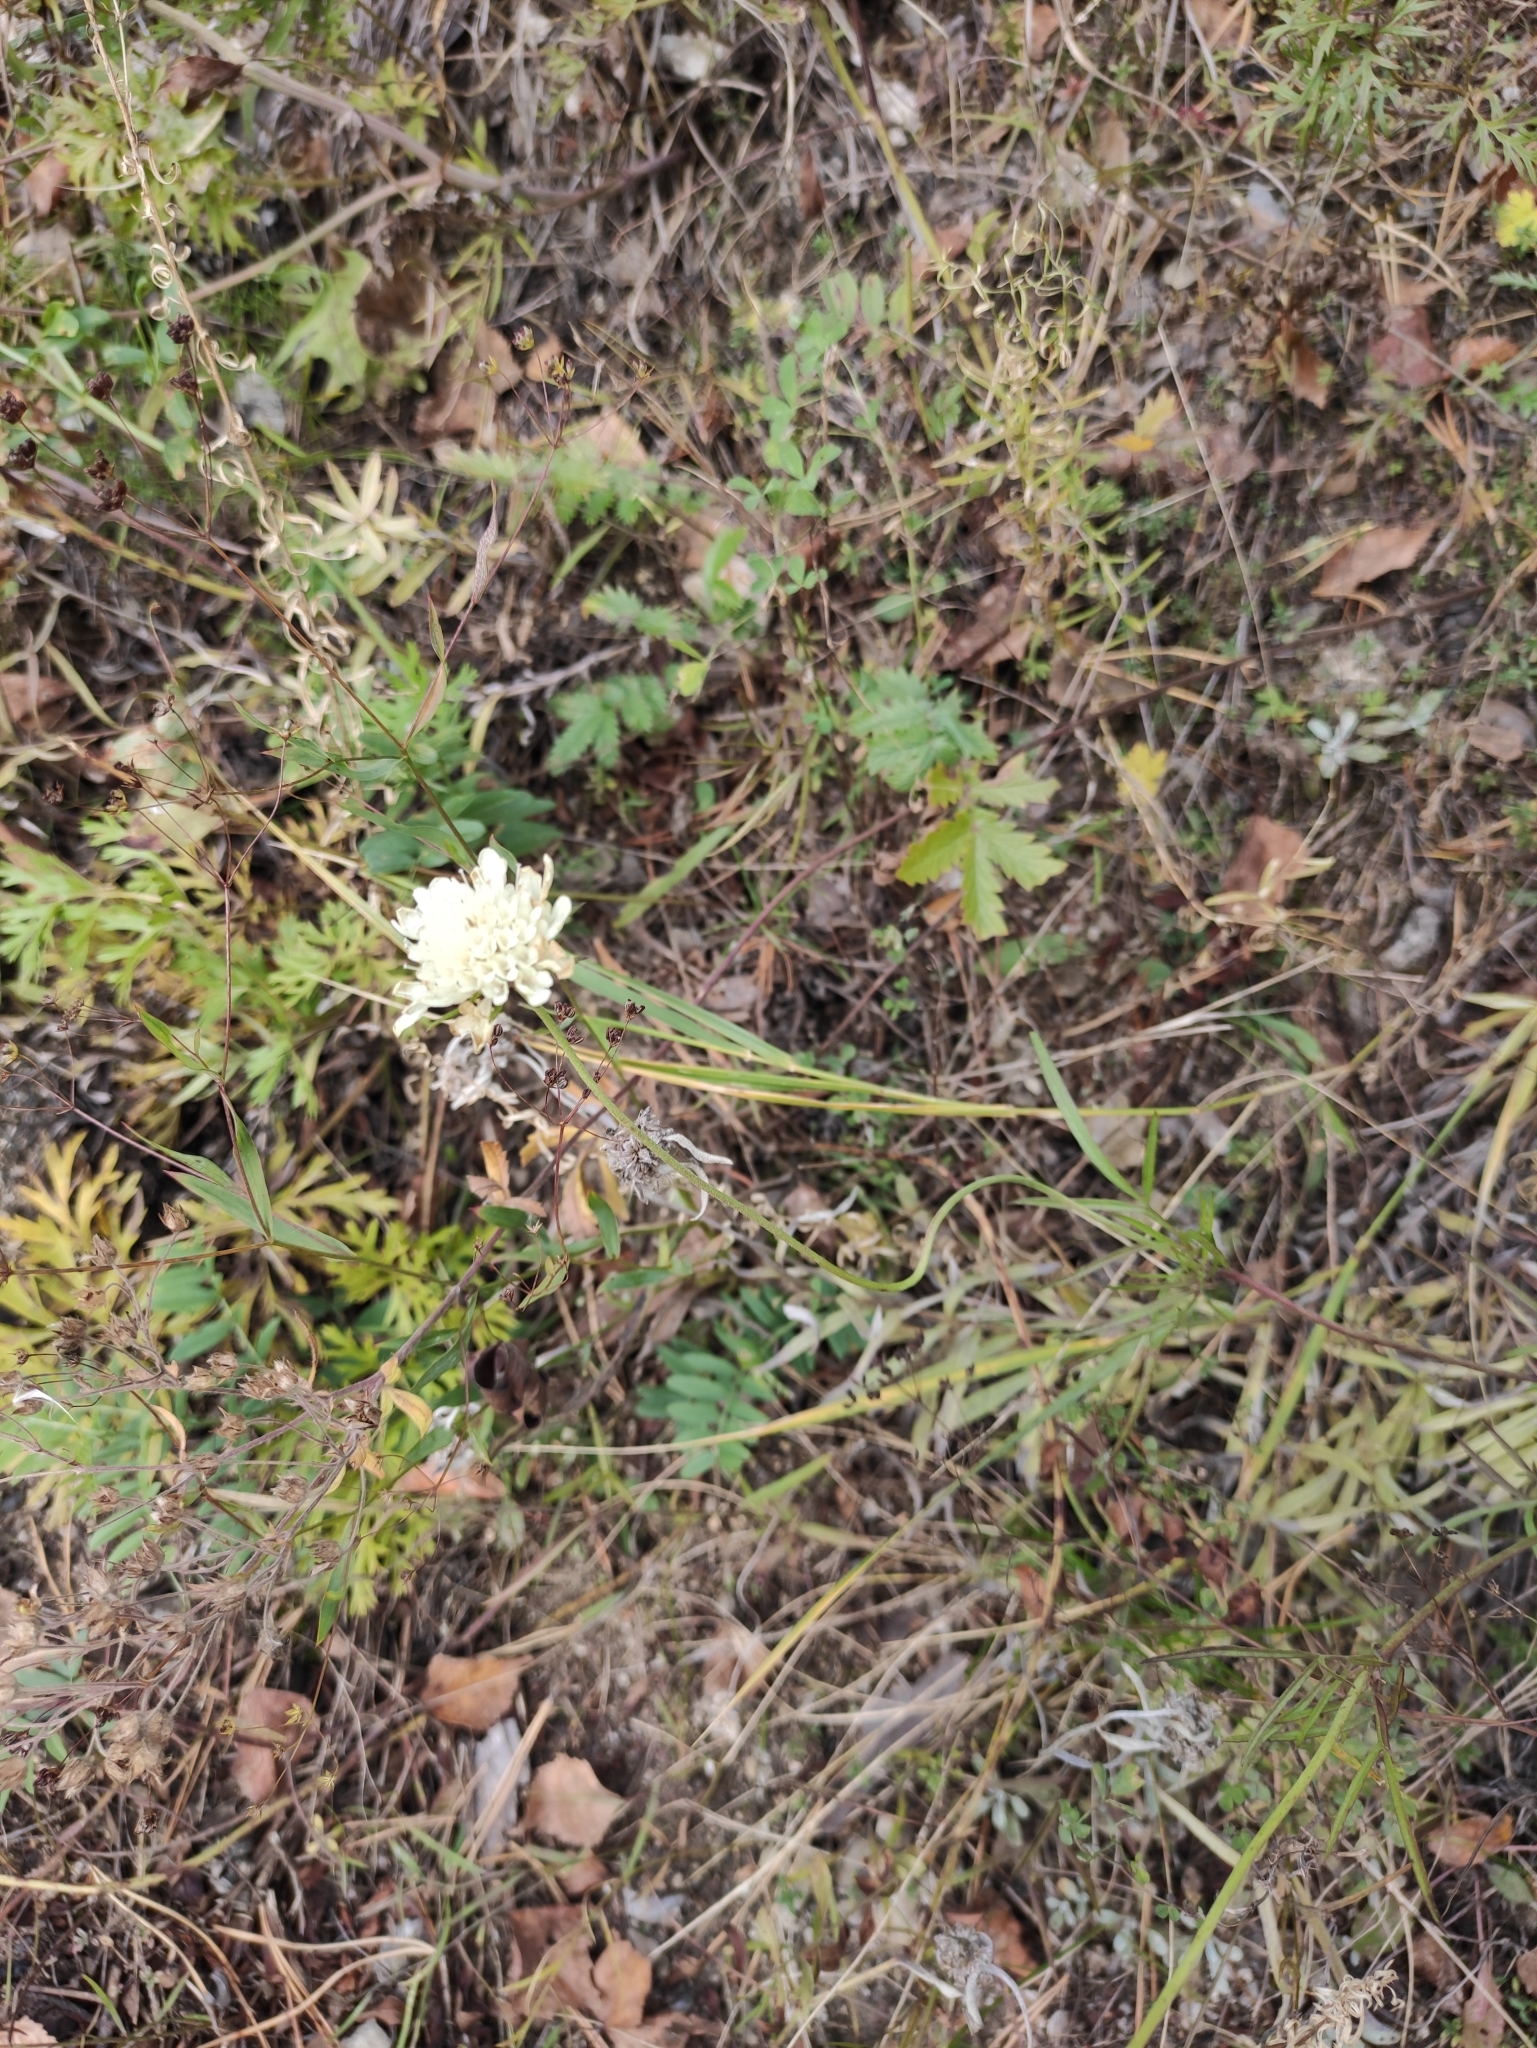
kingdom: Plantae
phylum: Tracheophyta
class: Magnoliopsida
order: Dipsacales
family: Caprifoliaceae
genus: Scabiosa
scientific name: Scabiosa ochroleuca
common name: Cream pincushions
